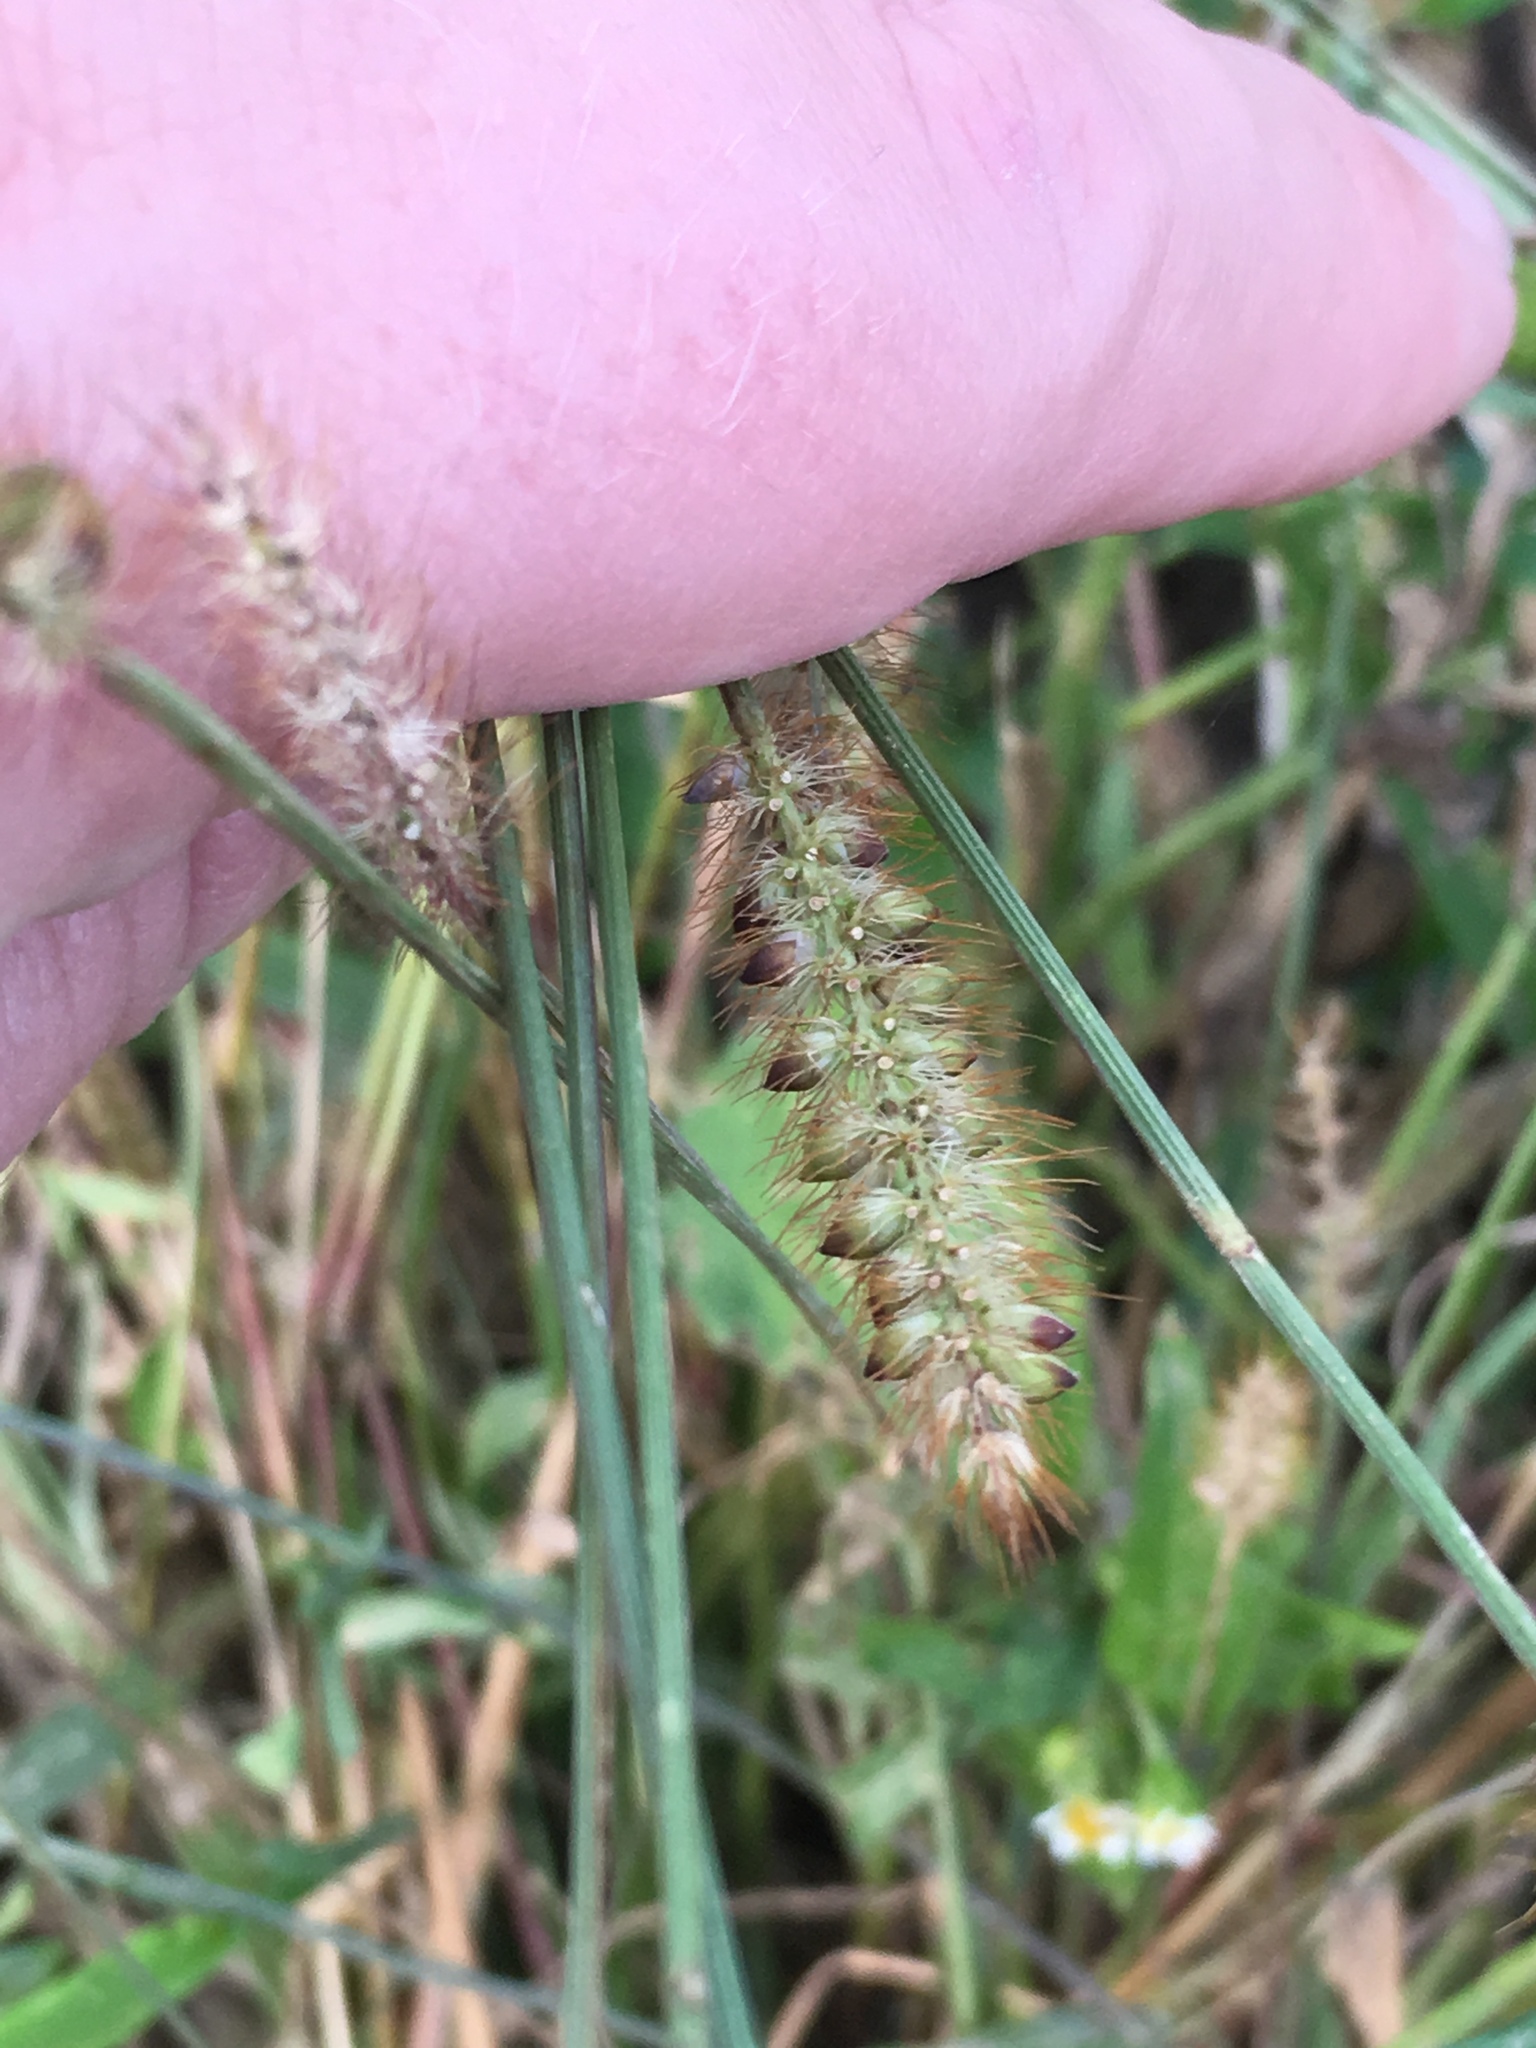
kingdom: Plantae
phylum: Tracheophyta
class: Liliopsida
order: Poales
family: Poaceae
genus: Setaria
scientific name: Setaria pumila
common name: Yellow bristle-grass
